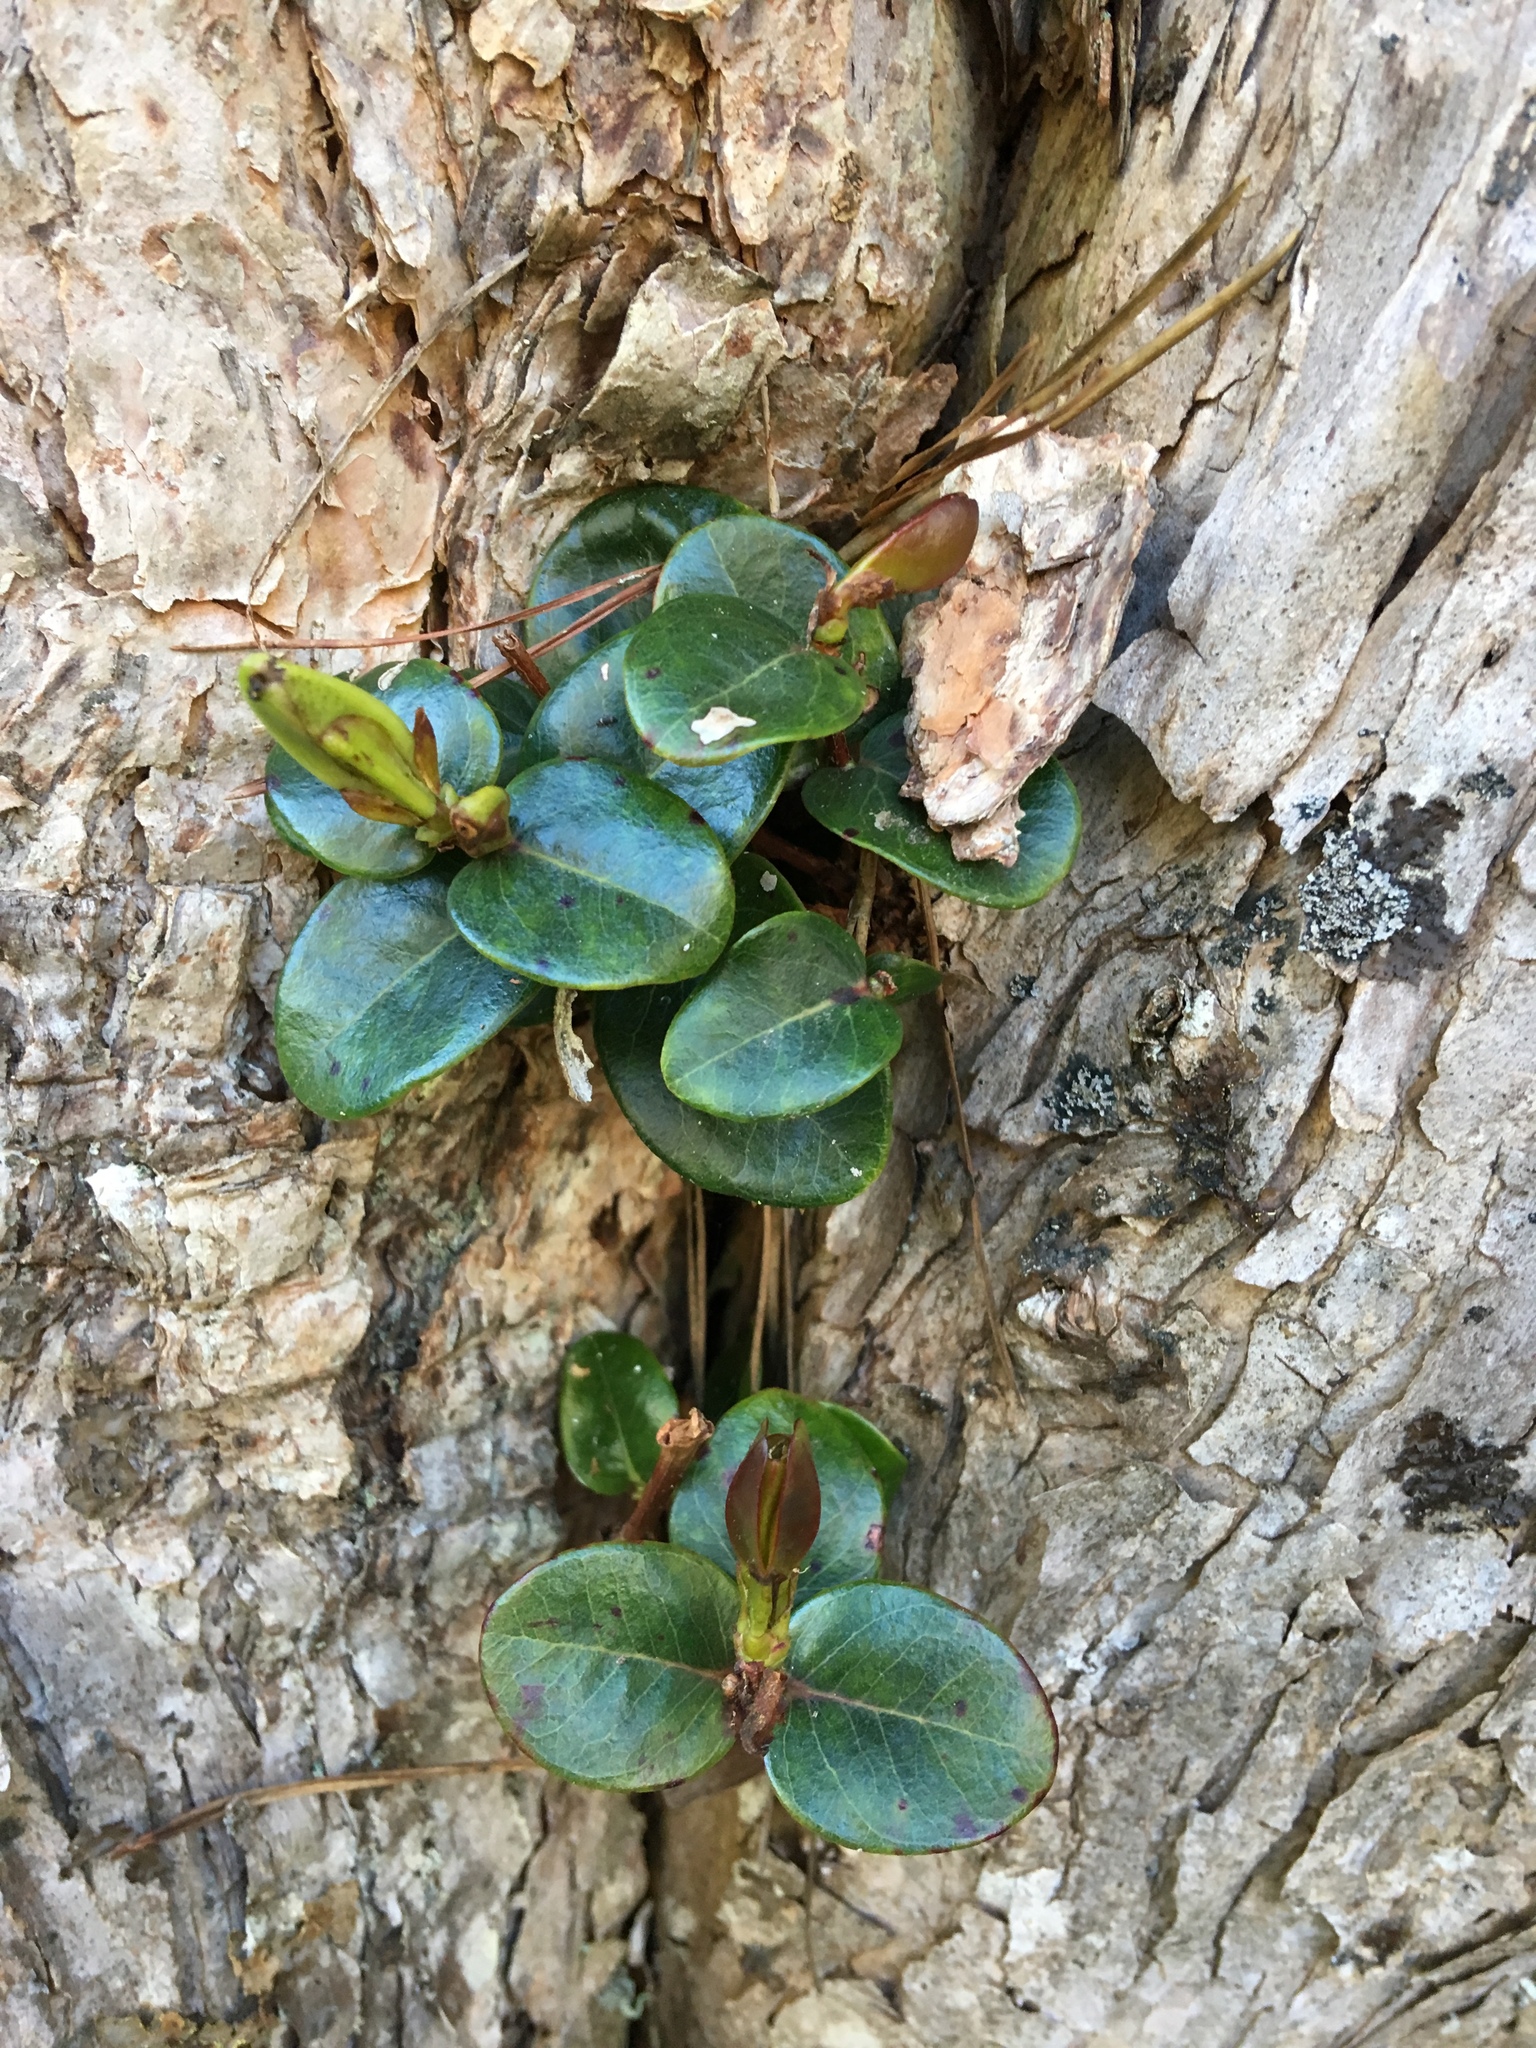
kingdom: Plantae
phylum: Tracheophyta
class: Magnoliopsida
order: Myrtales
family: Myrtaceae
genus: Metrosideros
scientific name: Metrosideros polymorpha
